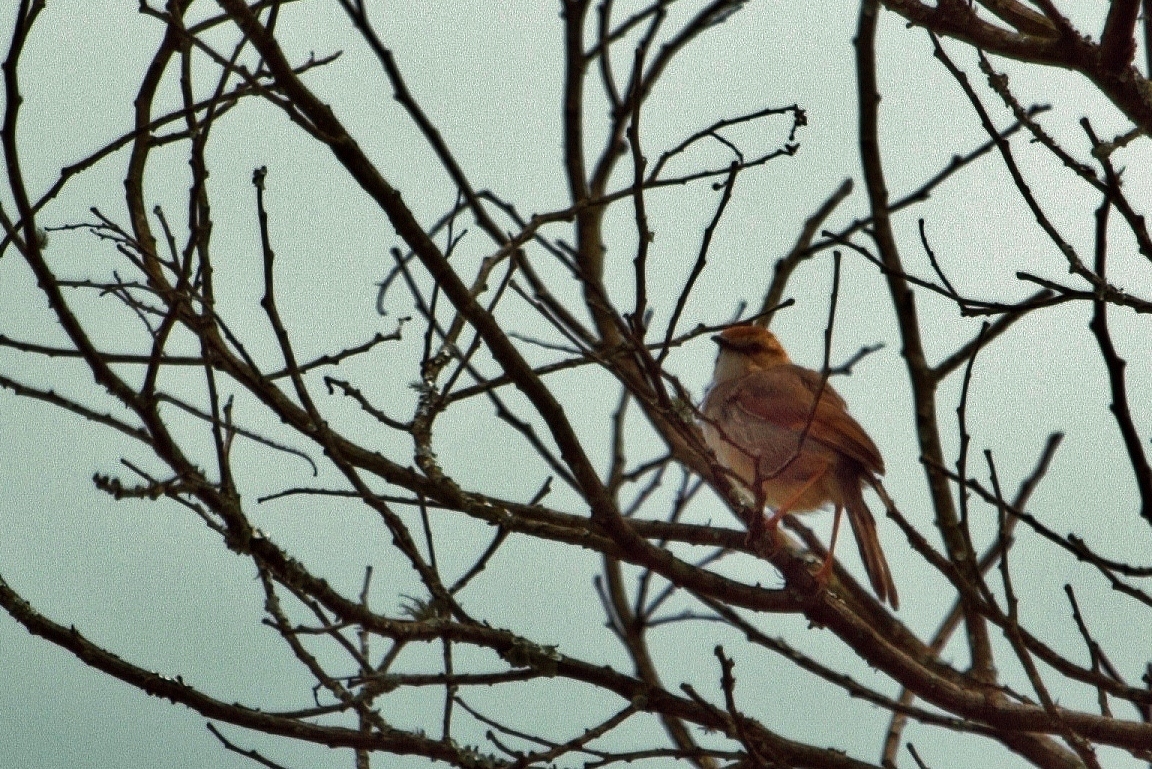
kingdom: Animalia
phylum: Chordata
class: Aves
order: Passeriformes
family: Cisticolidae
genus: Cisticola
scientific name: Cisticola cantans
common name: Singing cisticola
